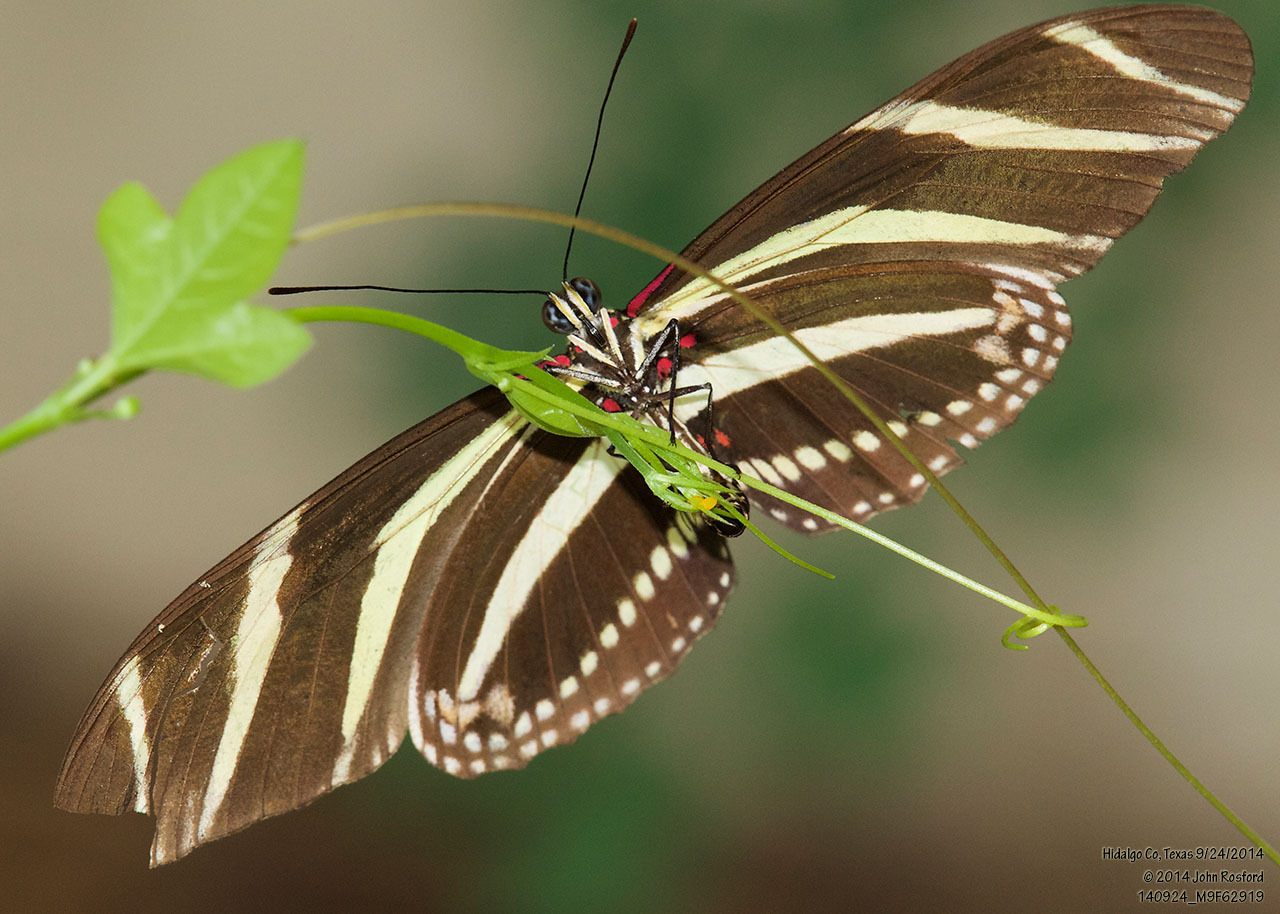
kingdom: Animalia
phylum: Arthropoda
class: Insecta
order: Lepidoptera
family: Nymphalidae
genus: Heliconius
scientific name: Heliconius charithonia
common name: Zebra long wing
